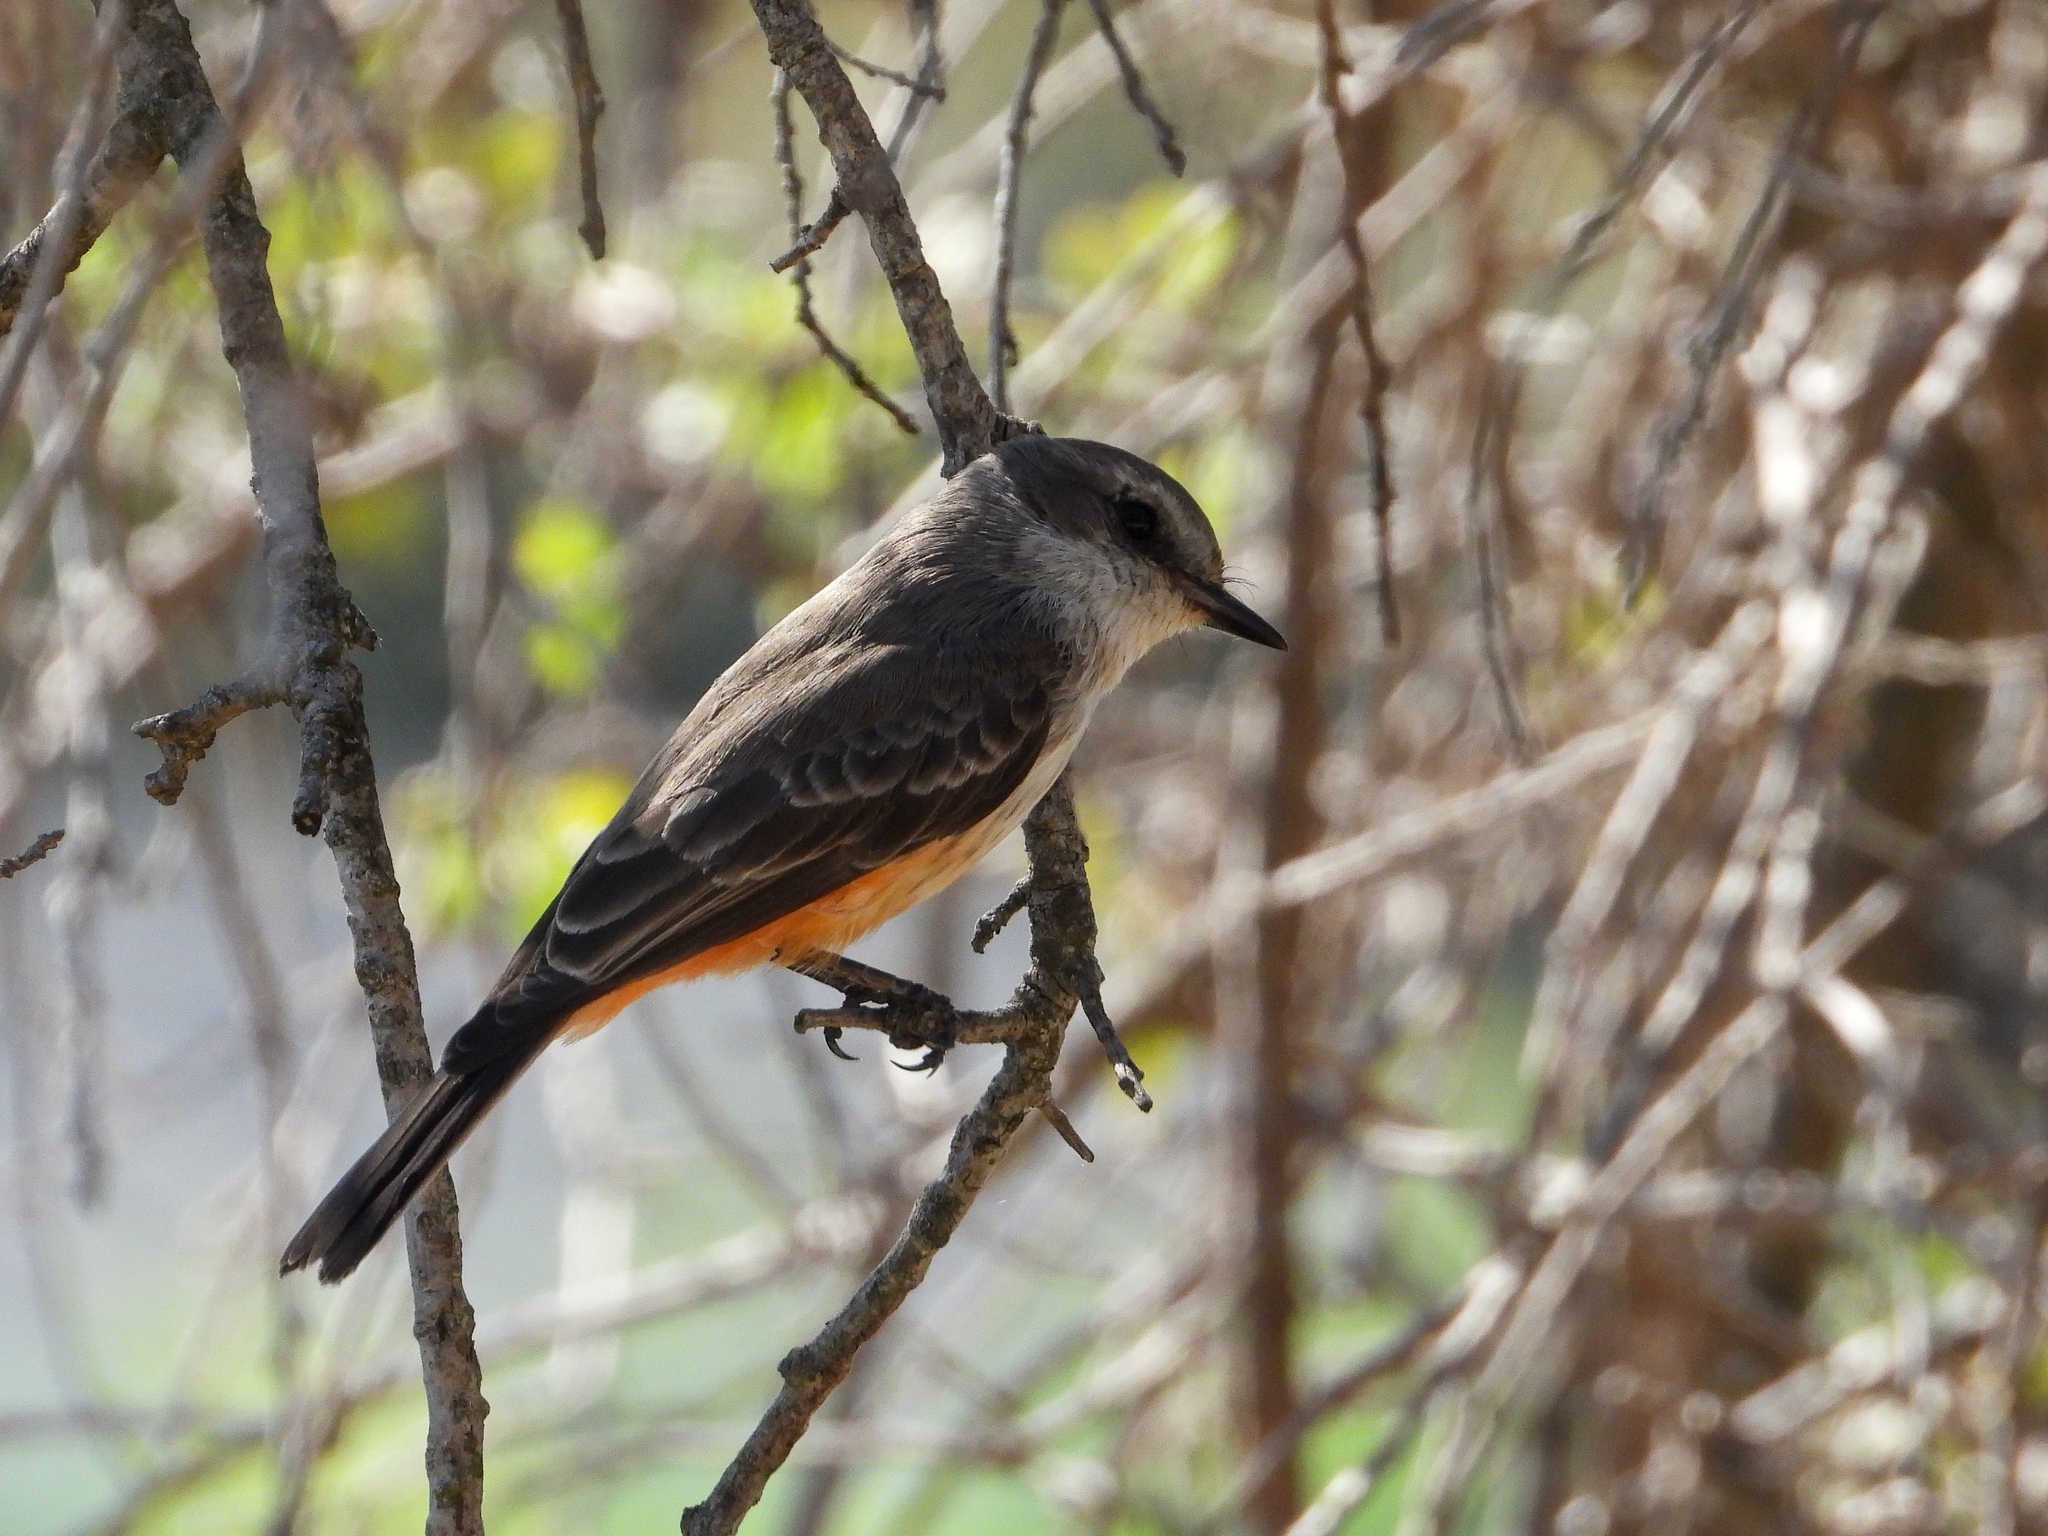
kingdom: Animalia
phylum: Chordata
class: Aves
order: Passeriformes
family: Tyrannidae
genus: Pyrocephalus
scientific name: Pyrocephalus rubinus
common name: Vermilion flycatcher
